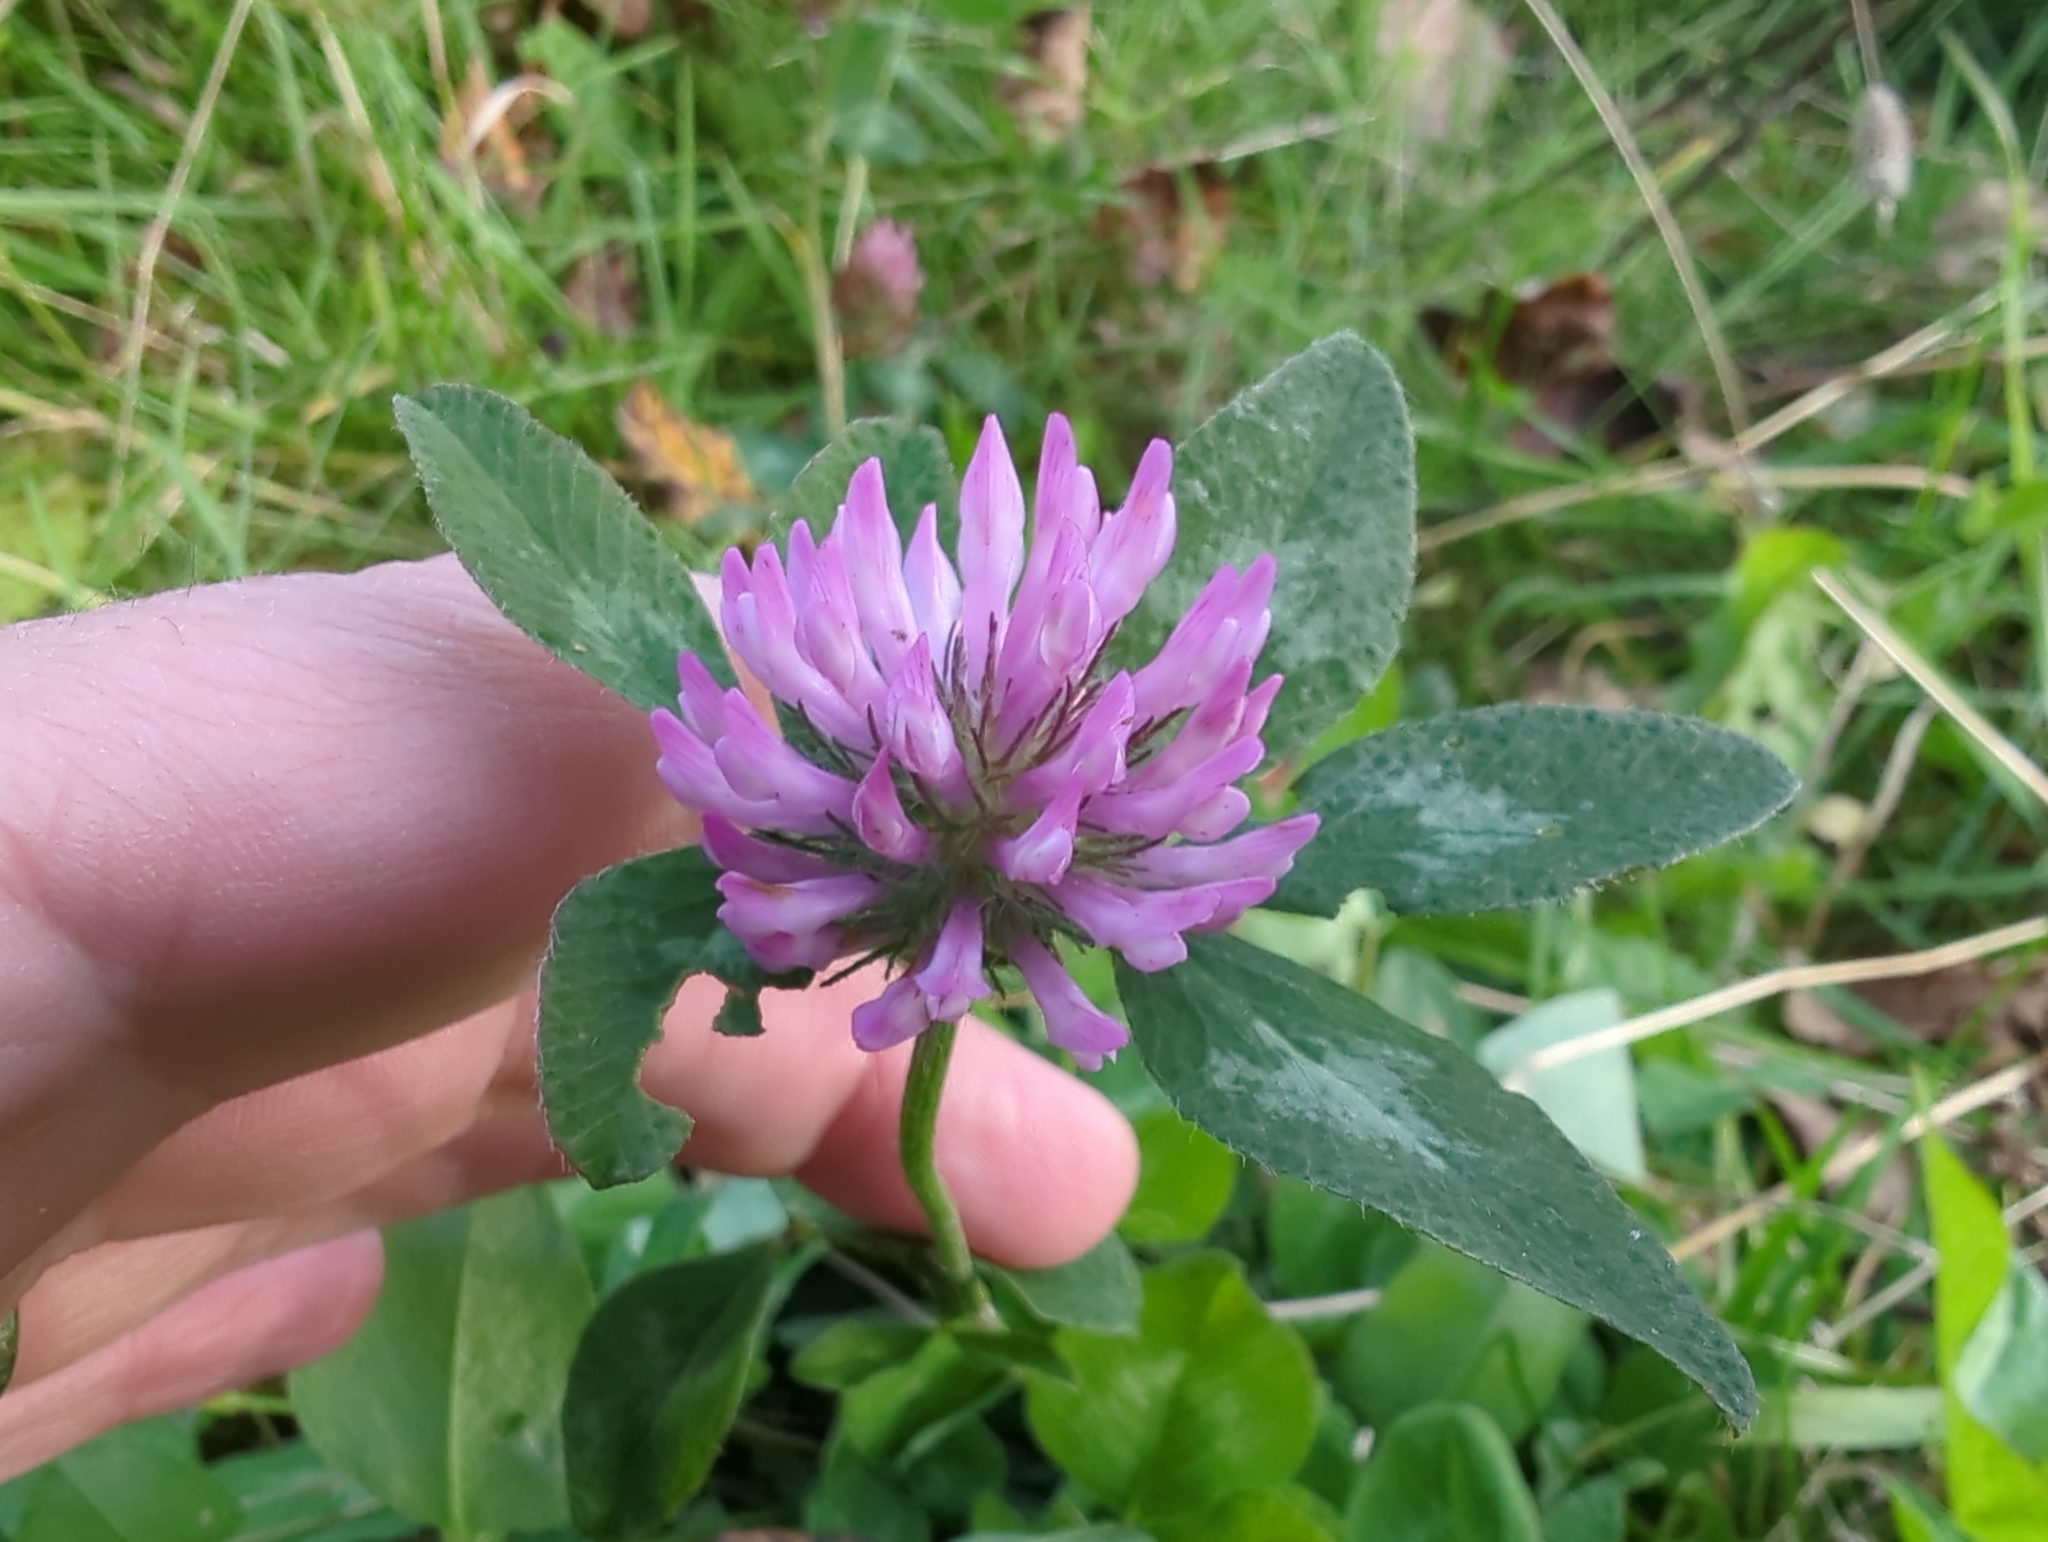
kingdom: Plantae
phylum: Tracheophyta
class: Magnoliopsida
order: Fabales
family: Fabaceae
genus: Trifolium
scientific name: Trifolium pratense
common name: Red clover
